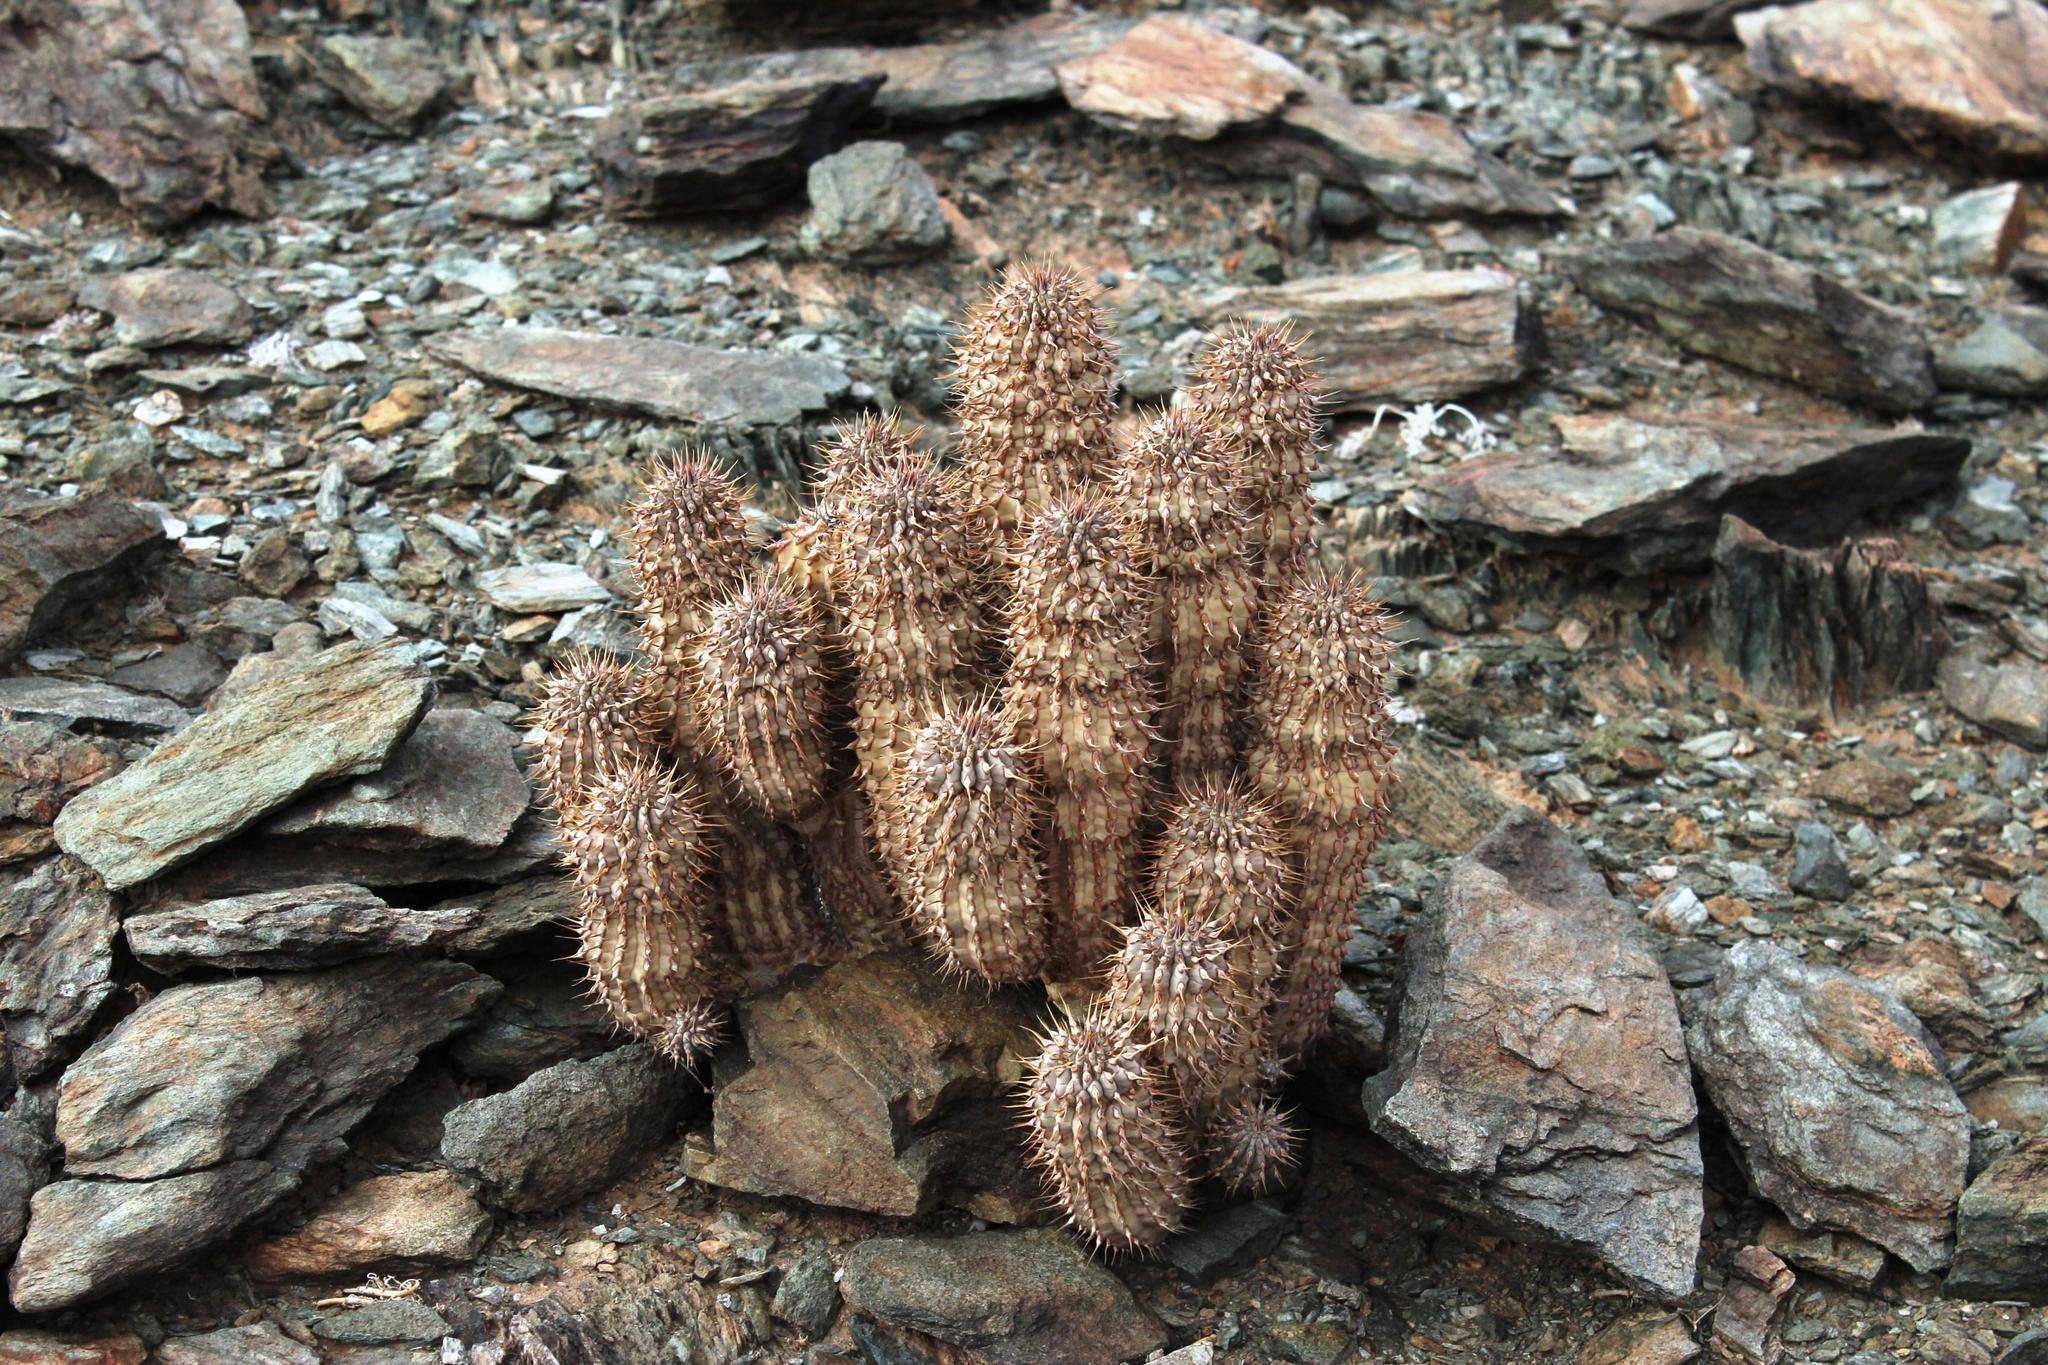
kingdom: Plantae
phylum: Tracheophyta
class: Magnoliopsida
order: Gentianales
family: Apocynaceae
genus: Hoodia
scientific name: Hoodia gordonii
